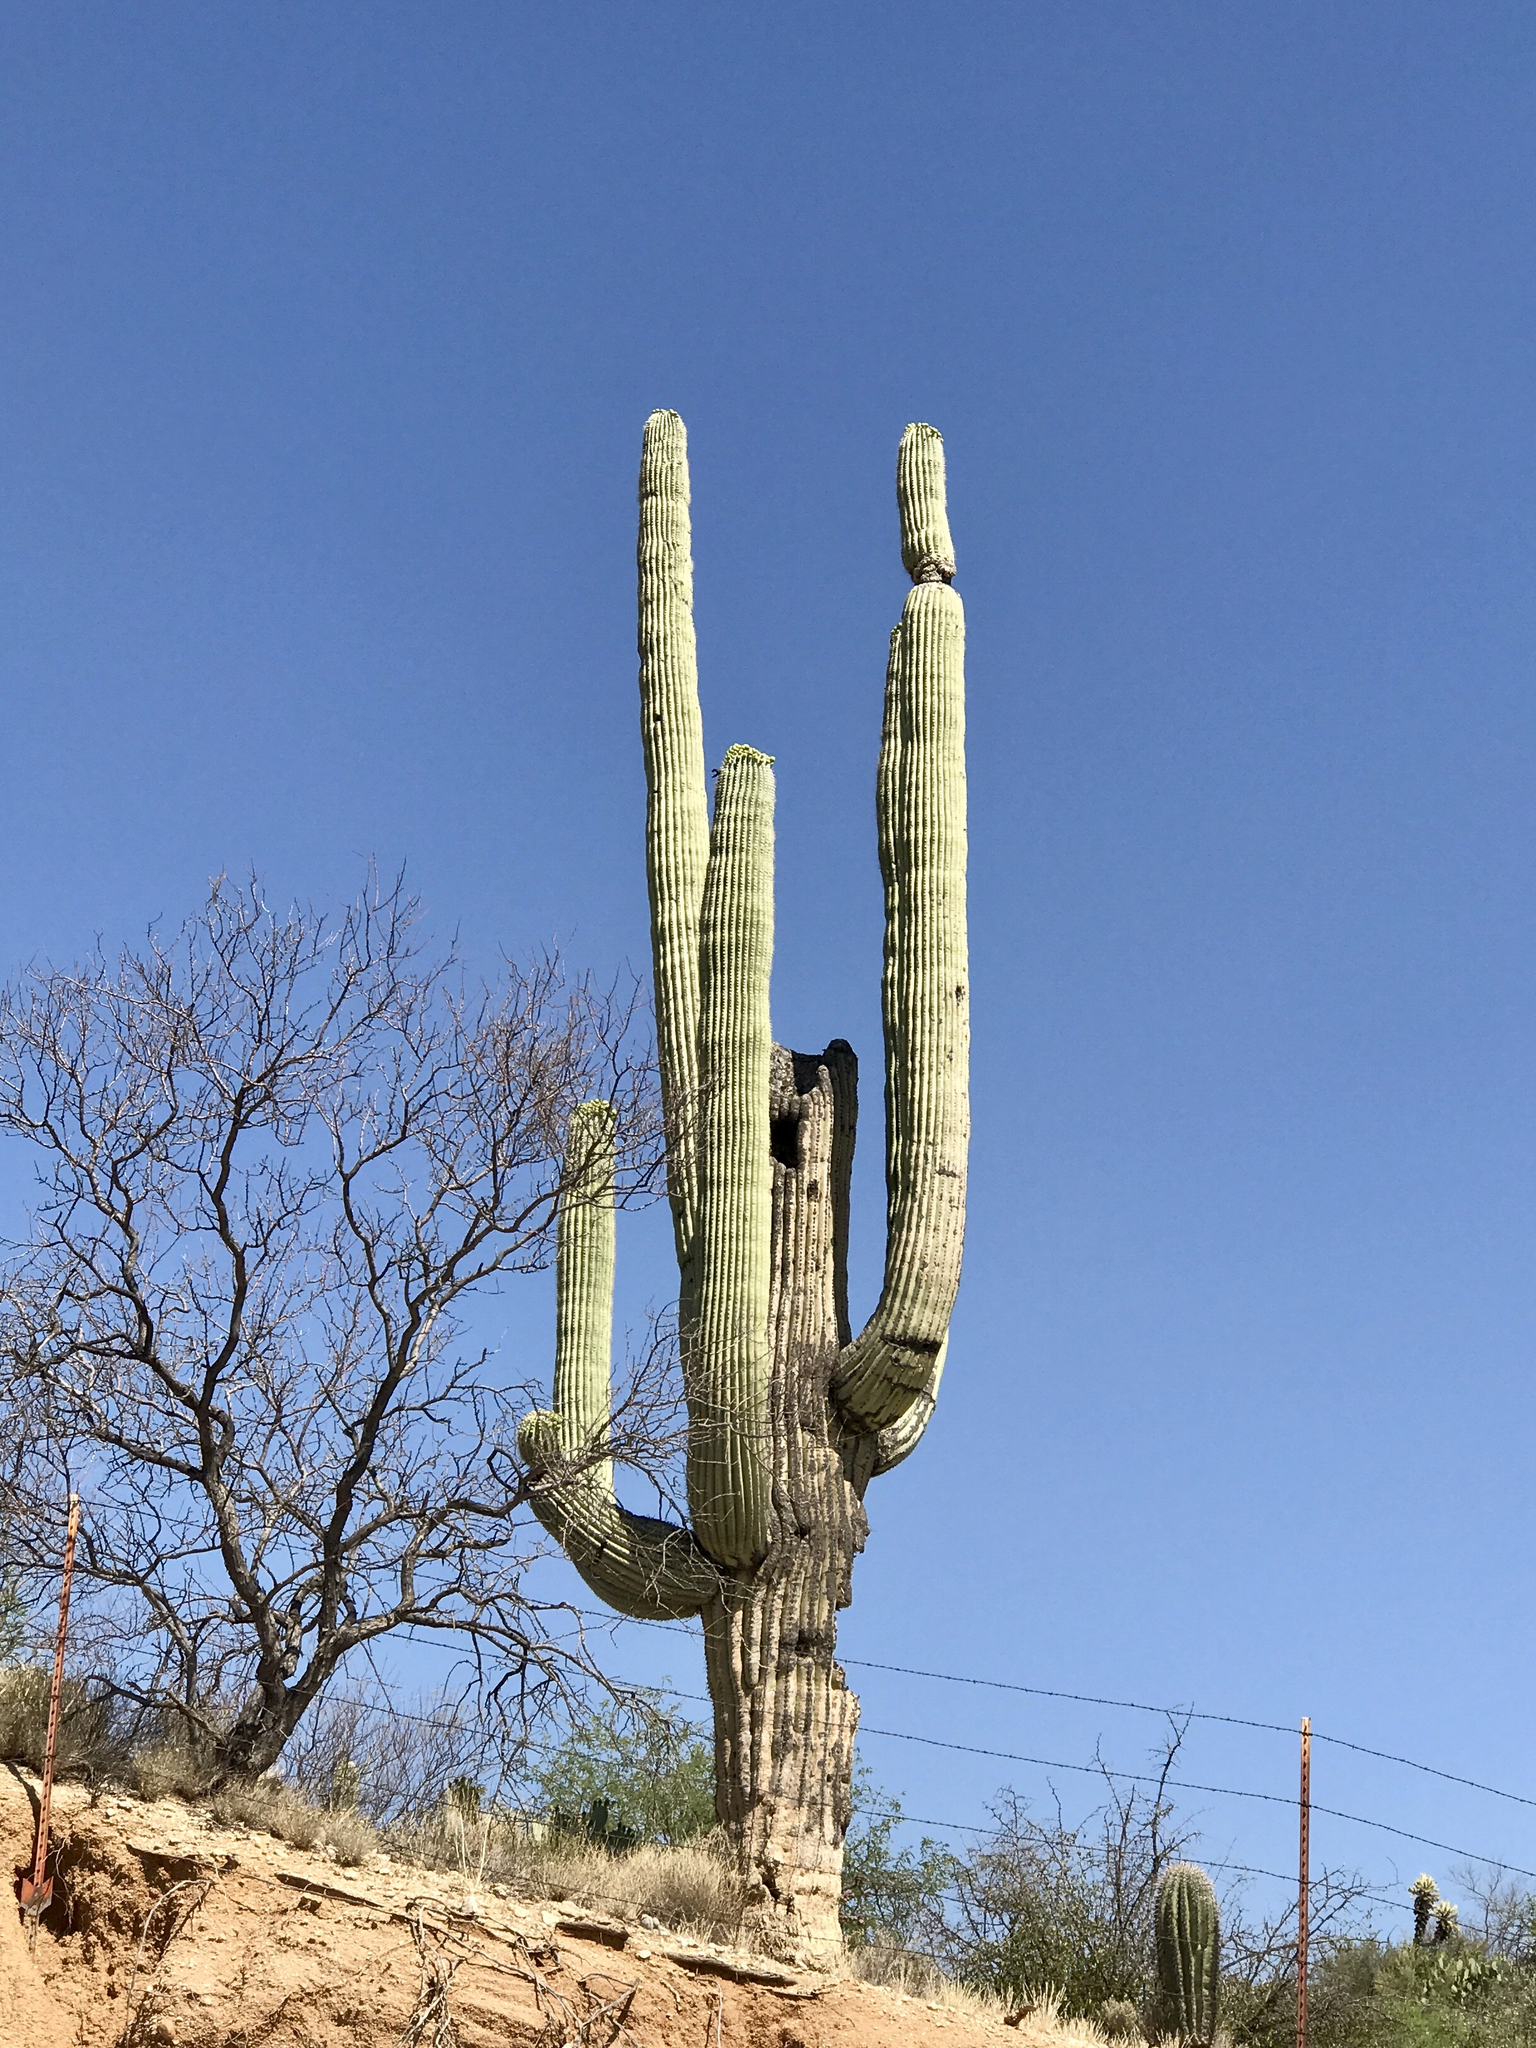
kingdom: Plantae
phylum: Tracheophyta
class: Magnoliopsida
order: Caryophyllales
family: Cactaceae
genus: Carnegiea
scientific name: Carnegiea gigantea
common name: Saguaro
